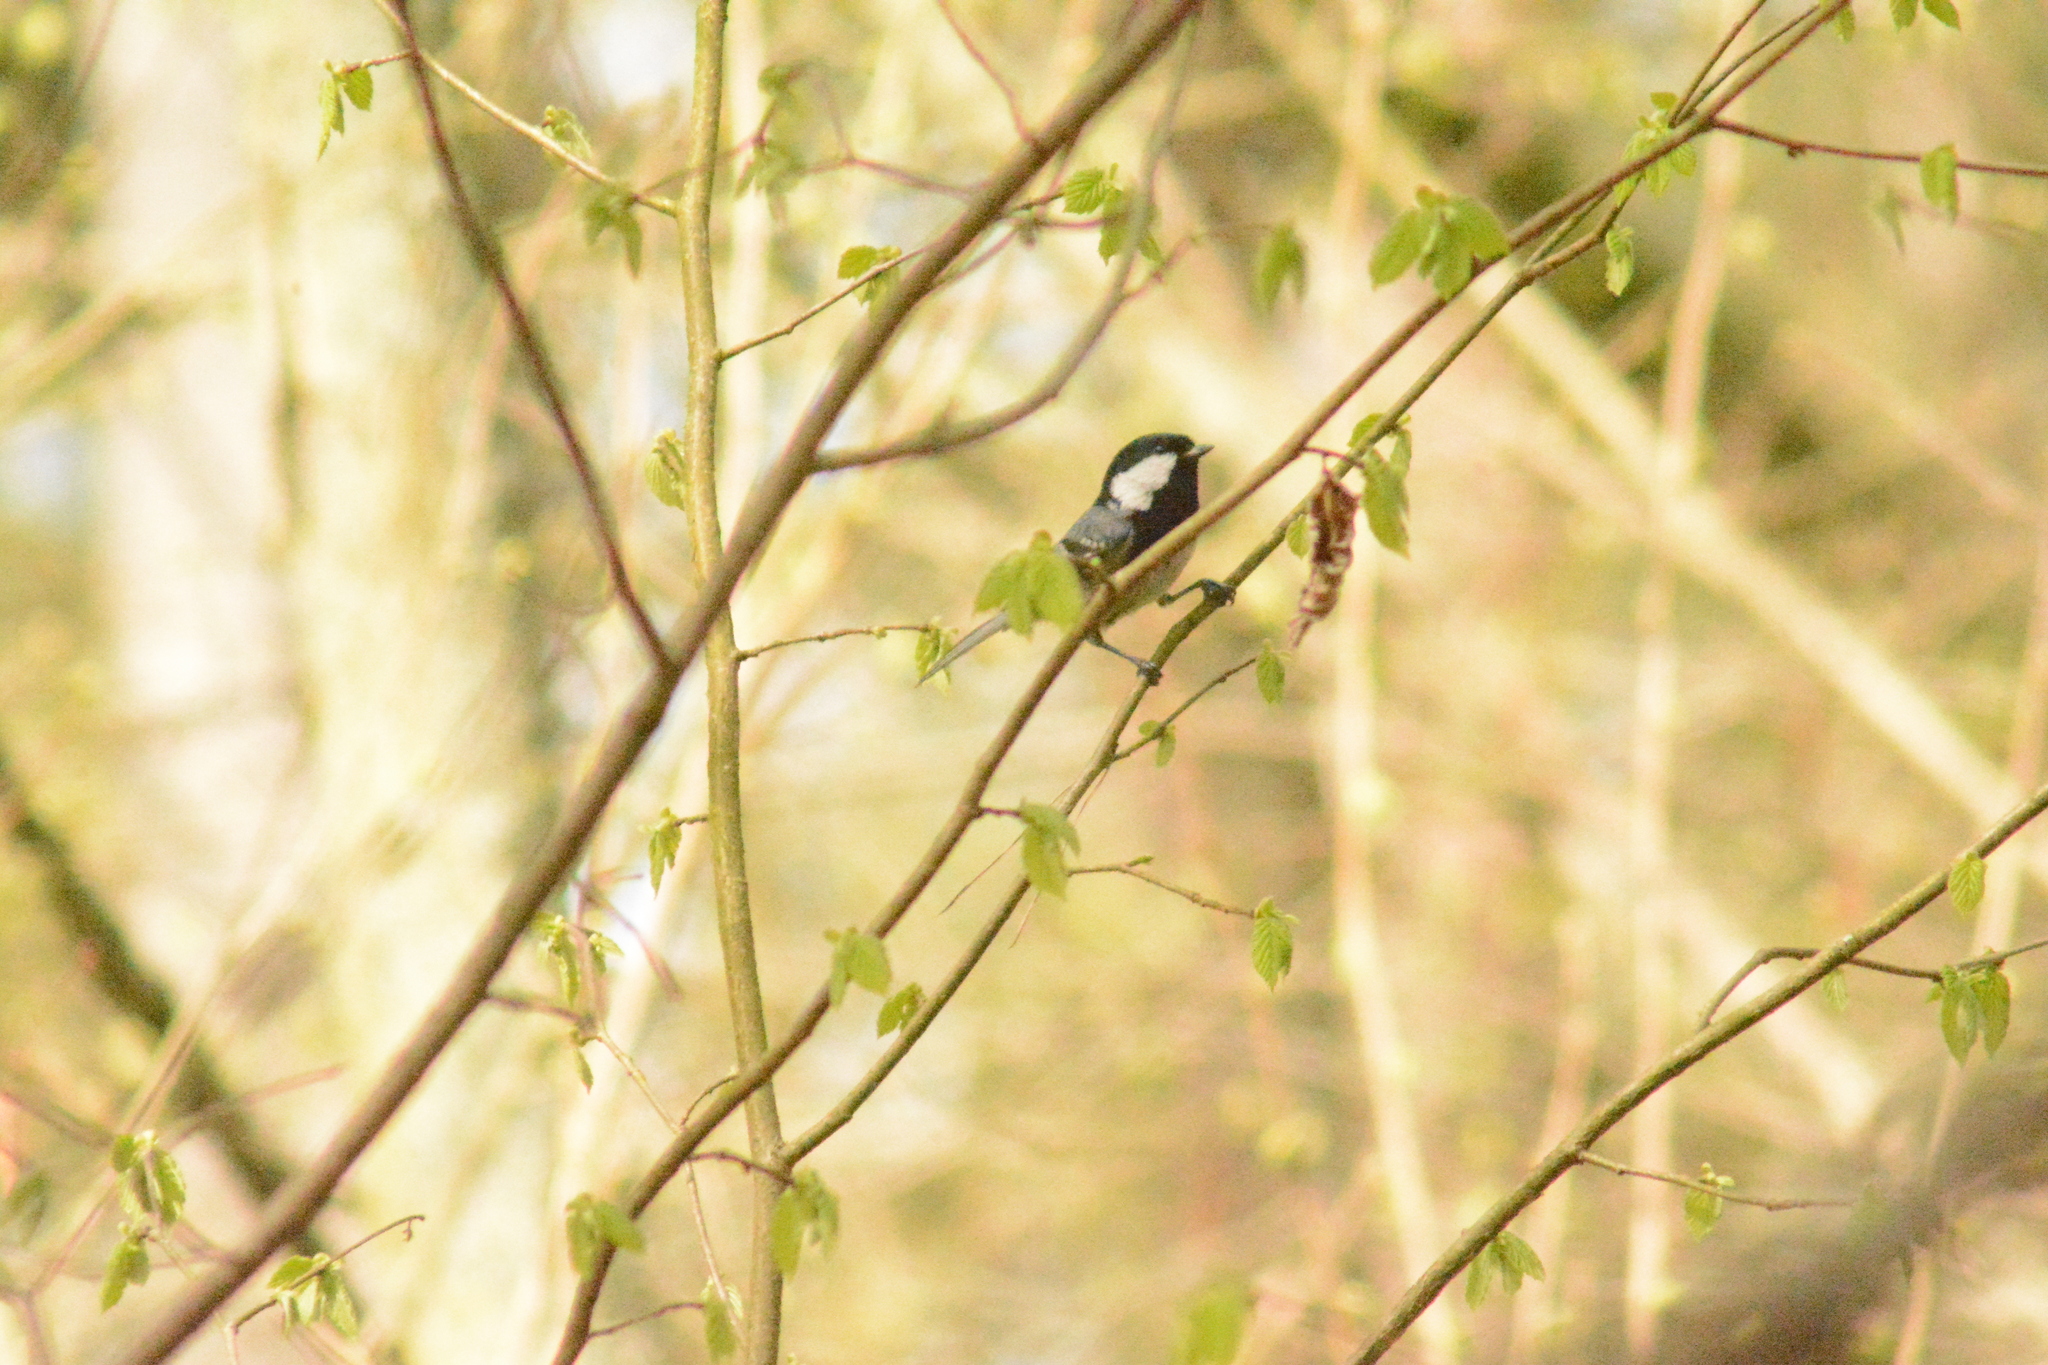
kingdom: Animalia
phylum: Chordata
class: Aves
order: Passeriformes
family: Paridae
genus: Periparus
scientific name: Periparus ater
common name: Coal tit
